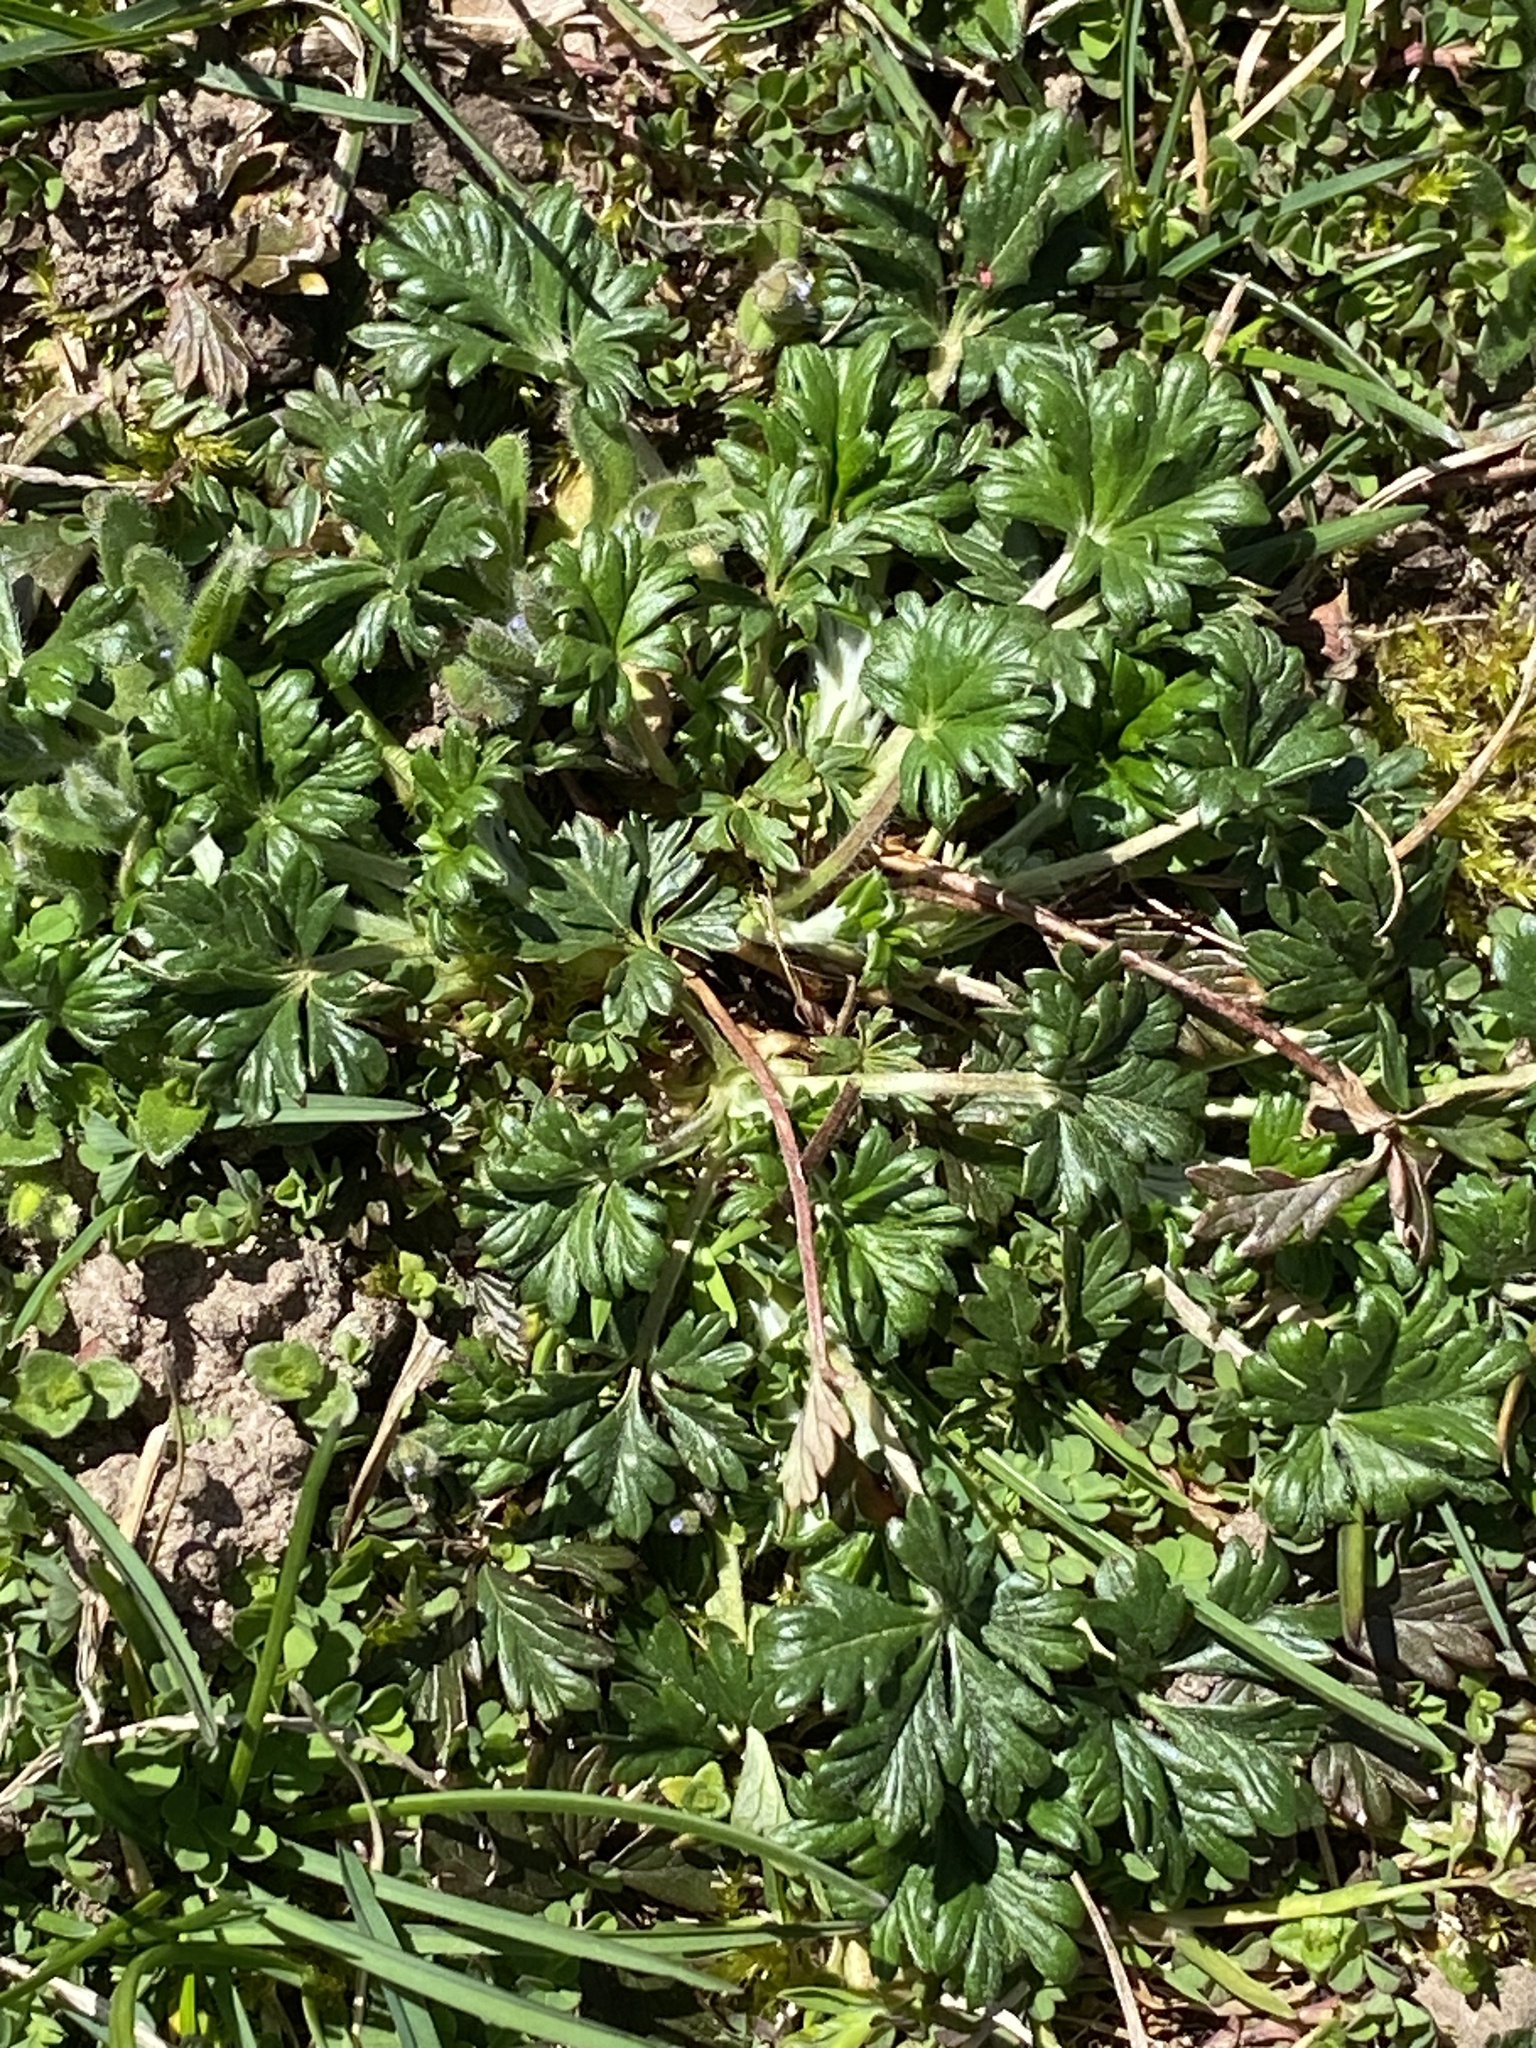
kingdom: Plantae
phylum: Tracheophyta
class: Magnoliopsida
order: Rosales
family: Rosaceae
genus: Potentilla
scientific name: Potentilla argentea
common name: Hoary cinquefoil
